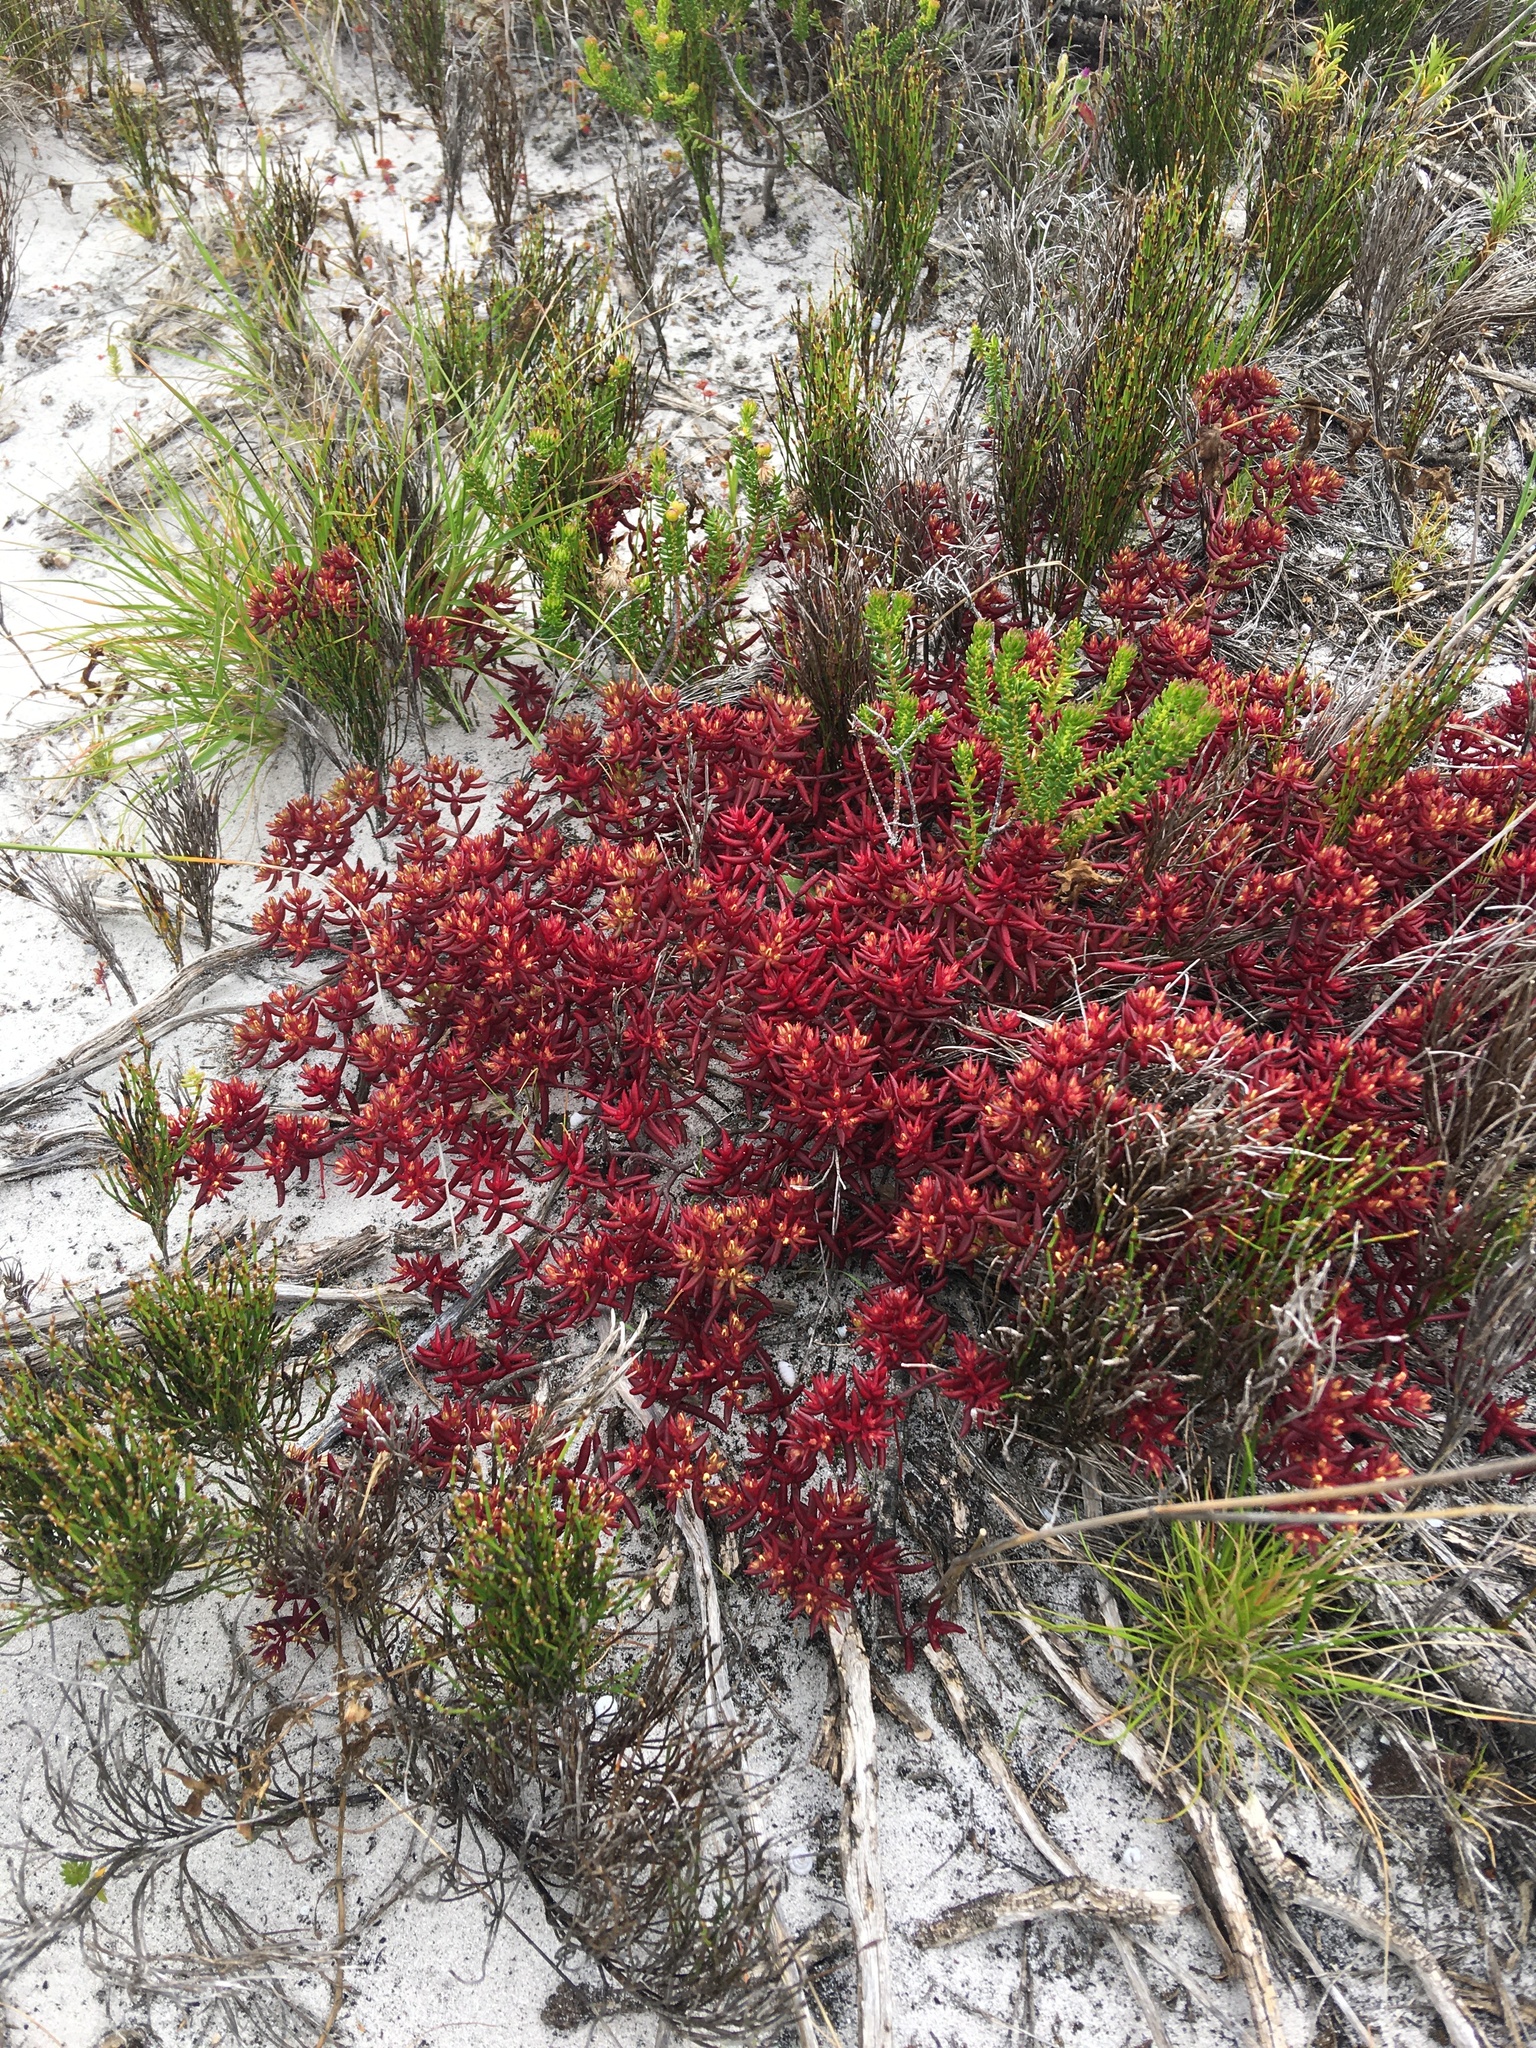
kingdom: Plantae
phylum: Tracheophyta
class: Magnoliopsida
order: Saxifragales
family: Crassulaceae
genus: Crassula
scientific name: Crassula expansa
